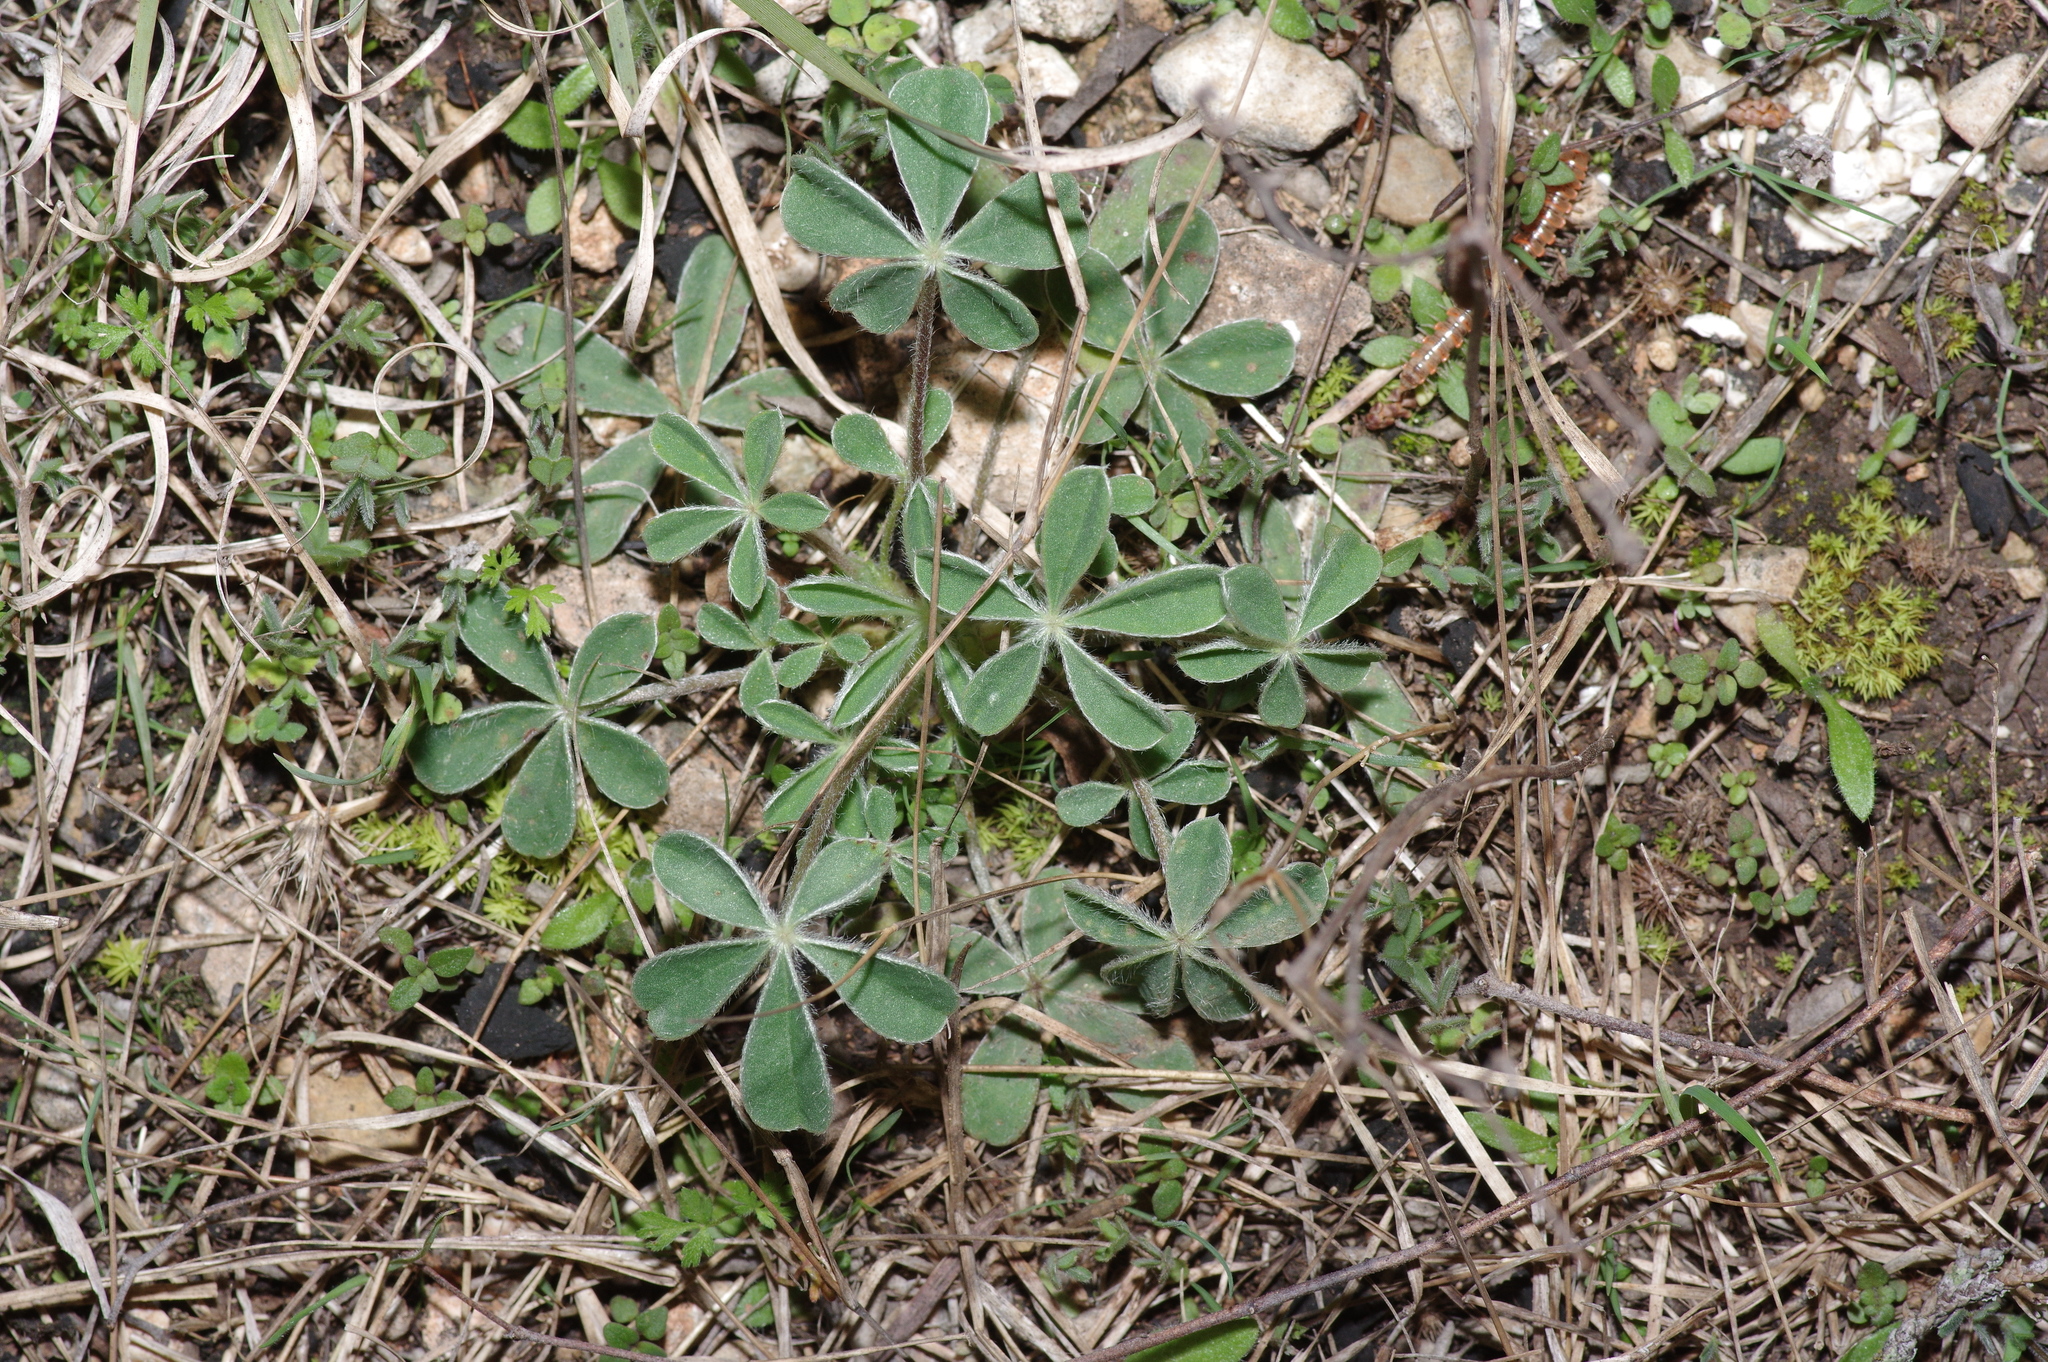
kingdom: Plantae
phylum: Tracheophyta
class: Magnoliopsida
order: Fabales
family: Fabaceae
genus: Lupinus
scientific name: Lupinus texensis
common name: Texas bluebonnet
